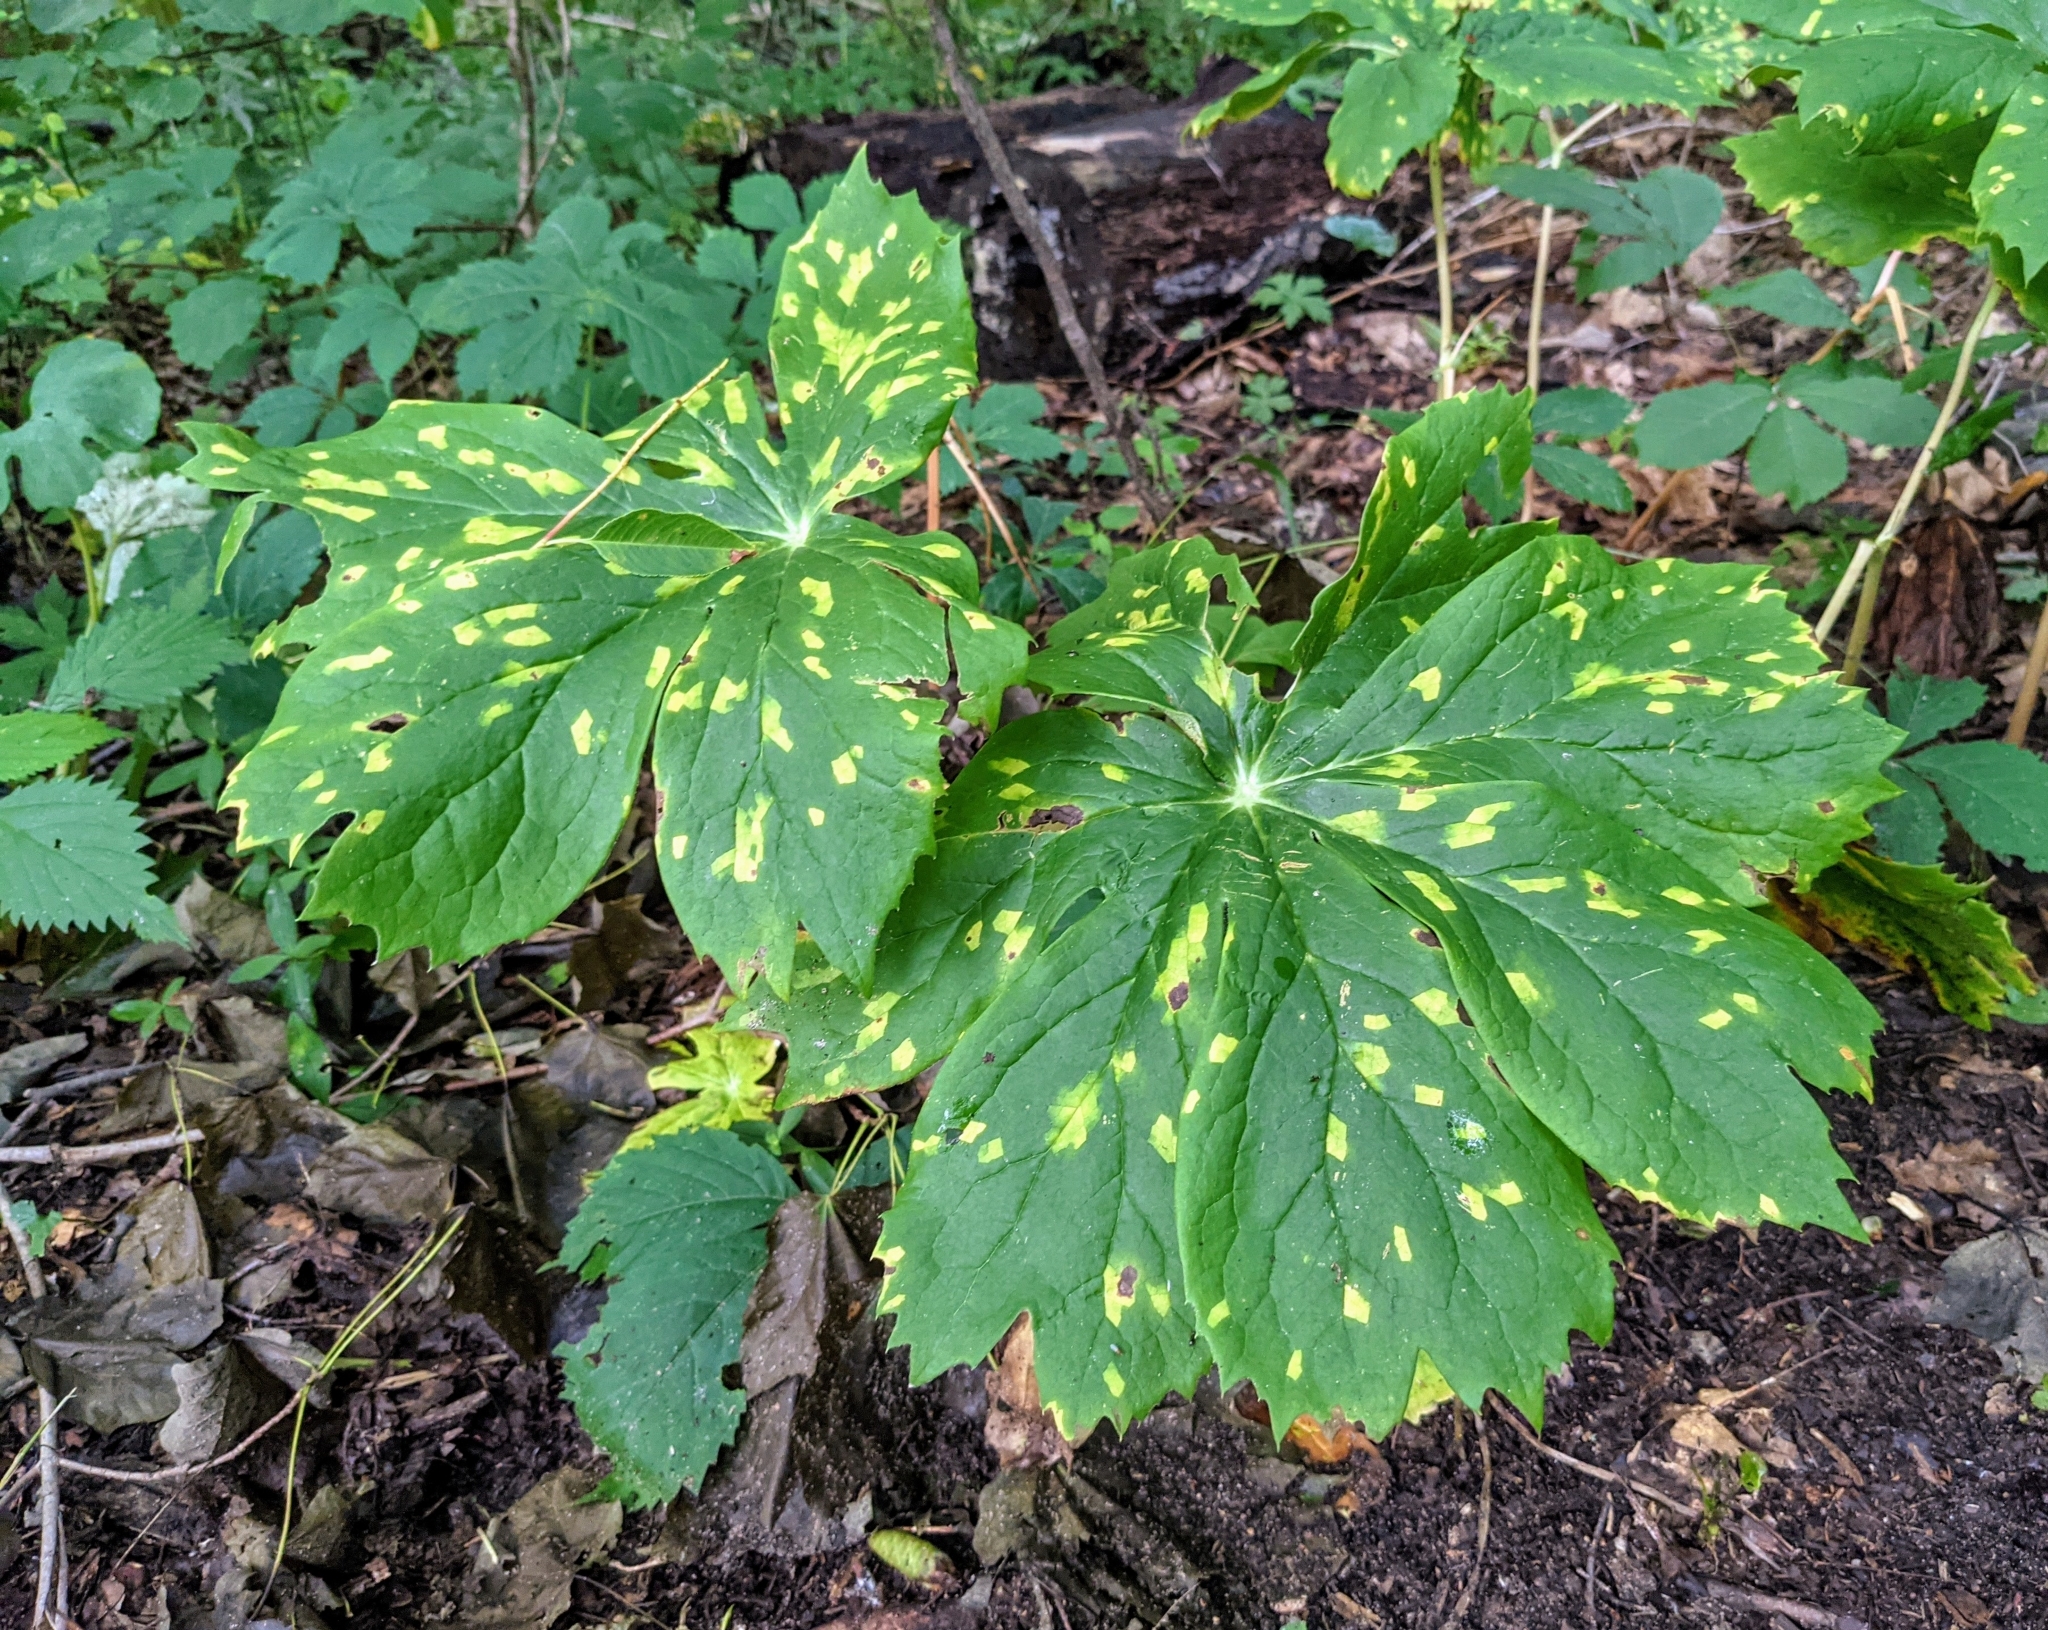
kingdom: Plantae
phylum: Tracheophyta
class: Magnoliopsida
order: Ranunculales
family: Berberidaceae
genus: Podophyllum
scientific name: Podophyllum peltatum
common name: Wild mandrake
